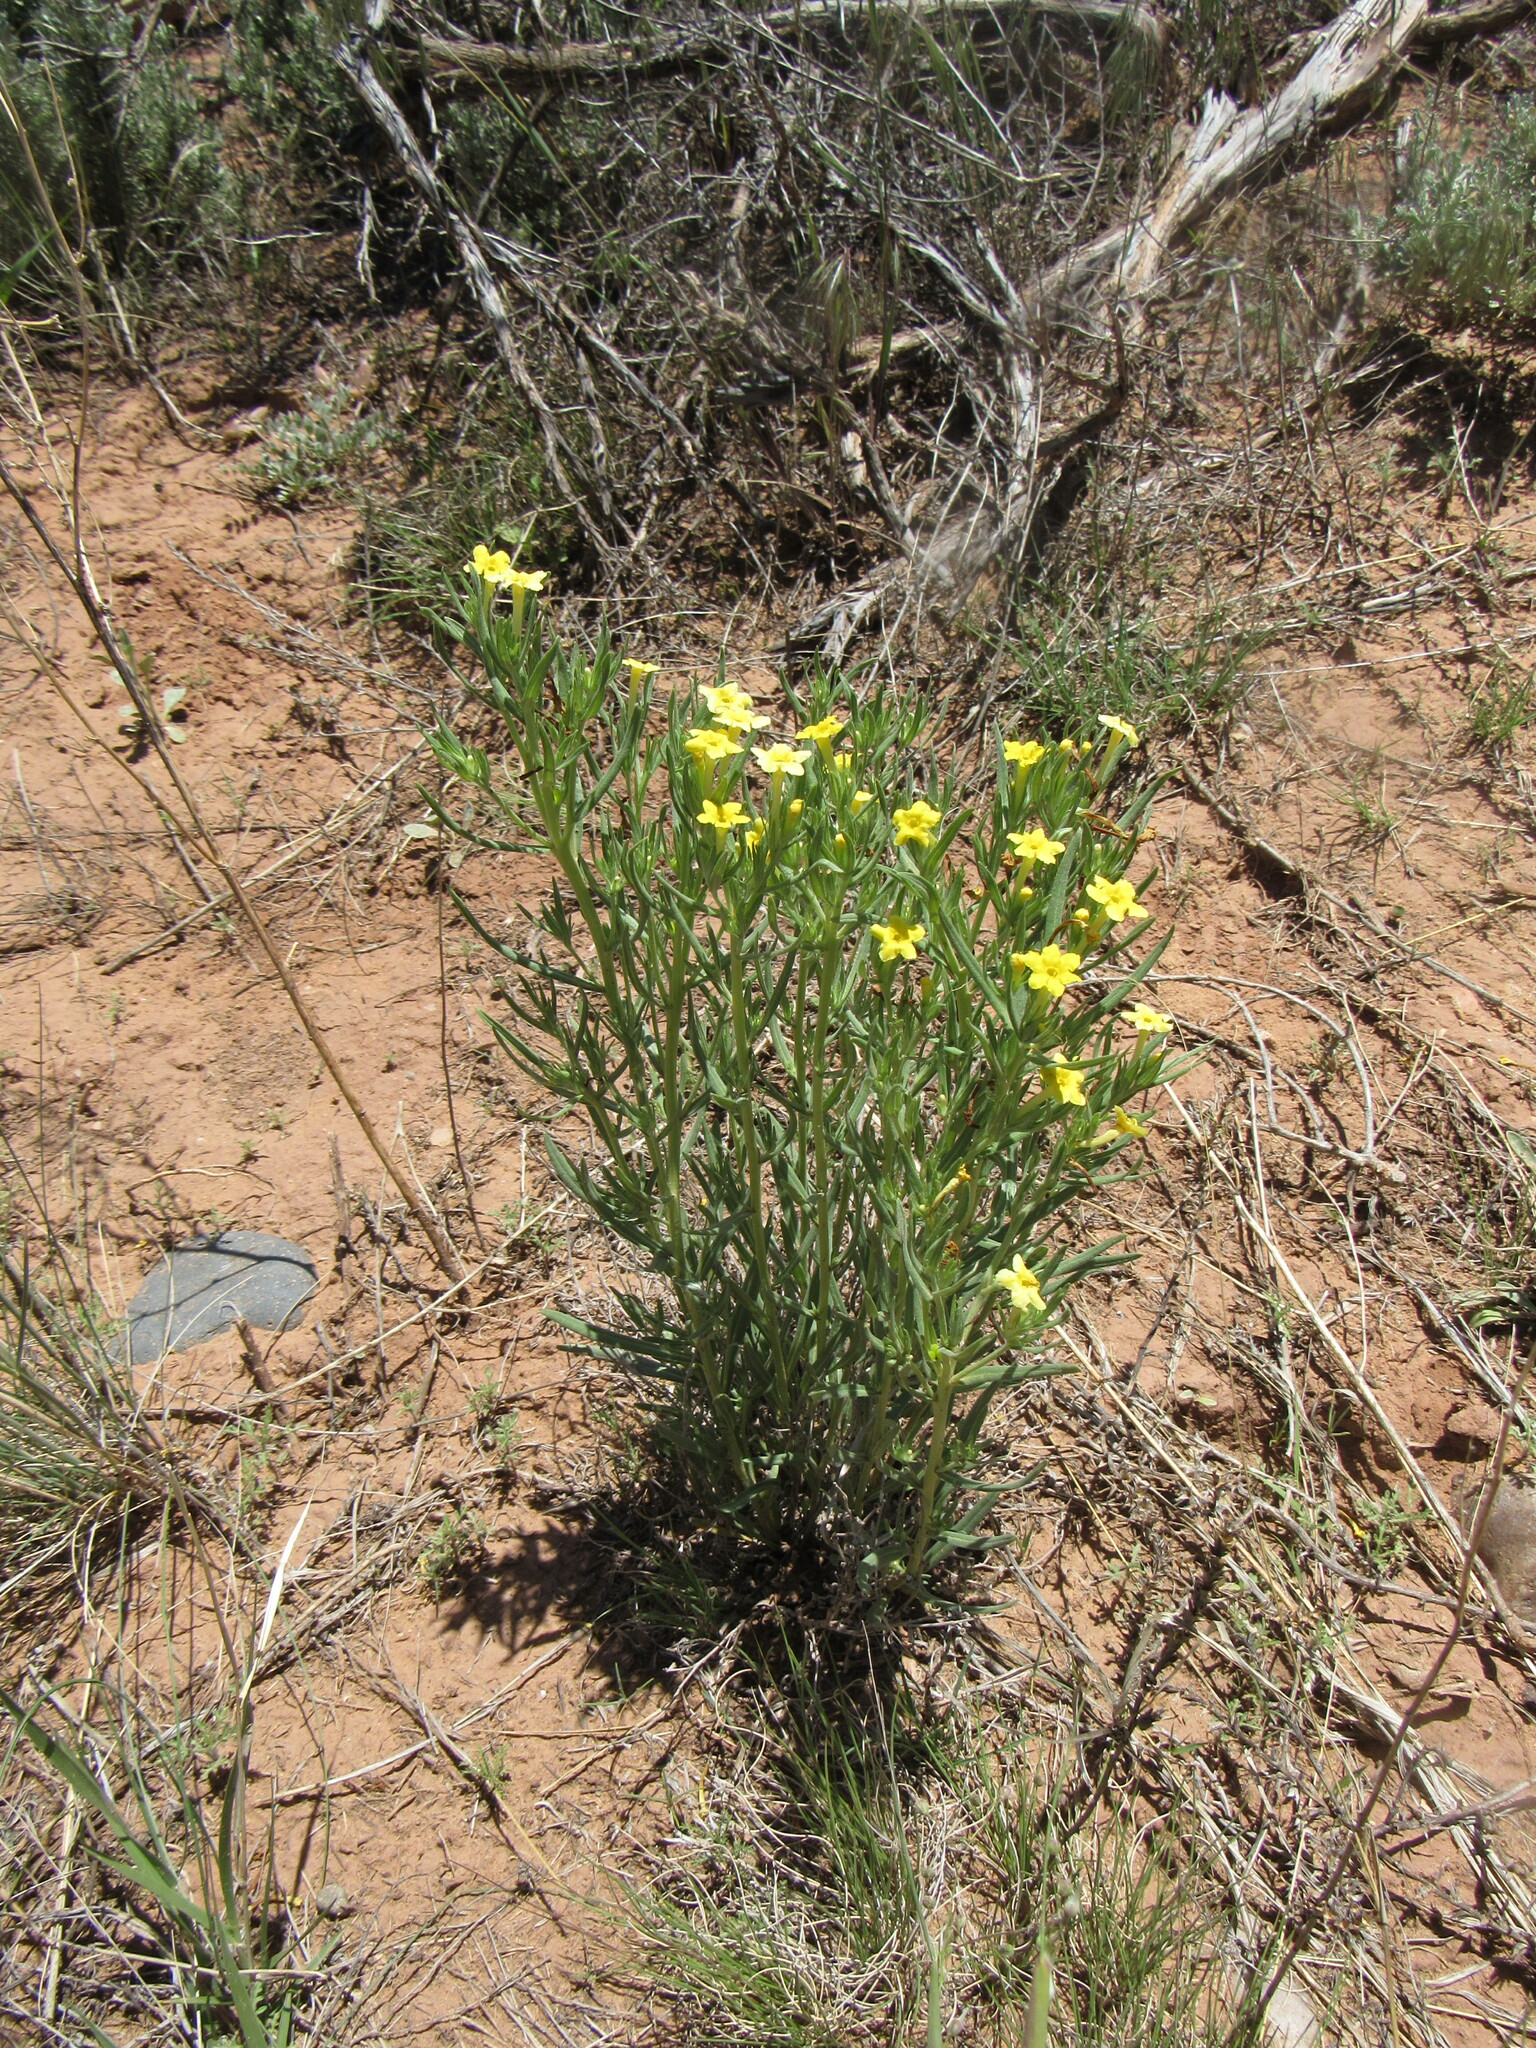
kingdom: Plantae
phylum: Tracheophyta
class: Magnoliopsida
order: Boraginales
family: Boraginaceae
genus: Lithospermum
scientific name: Lithospermum incisum
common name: Fringed gromwell
